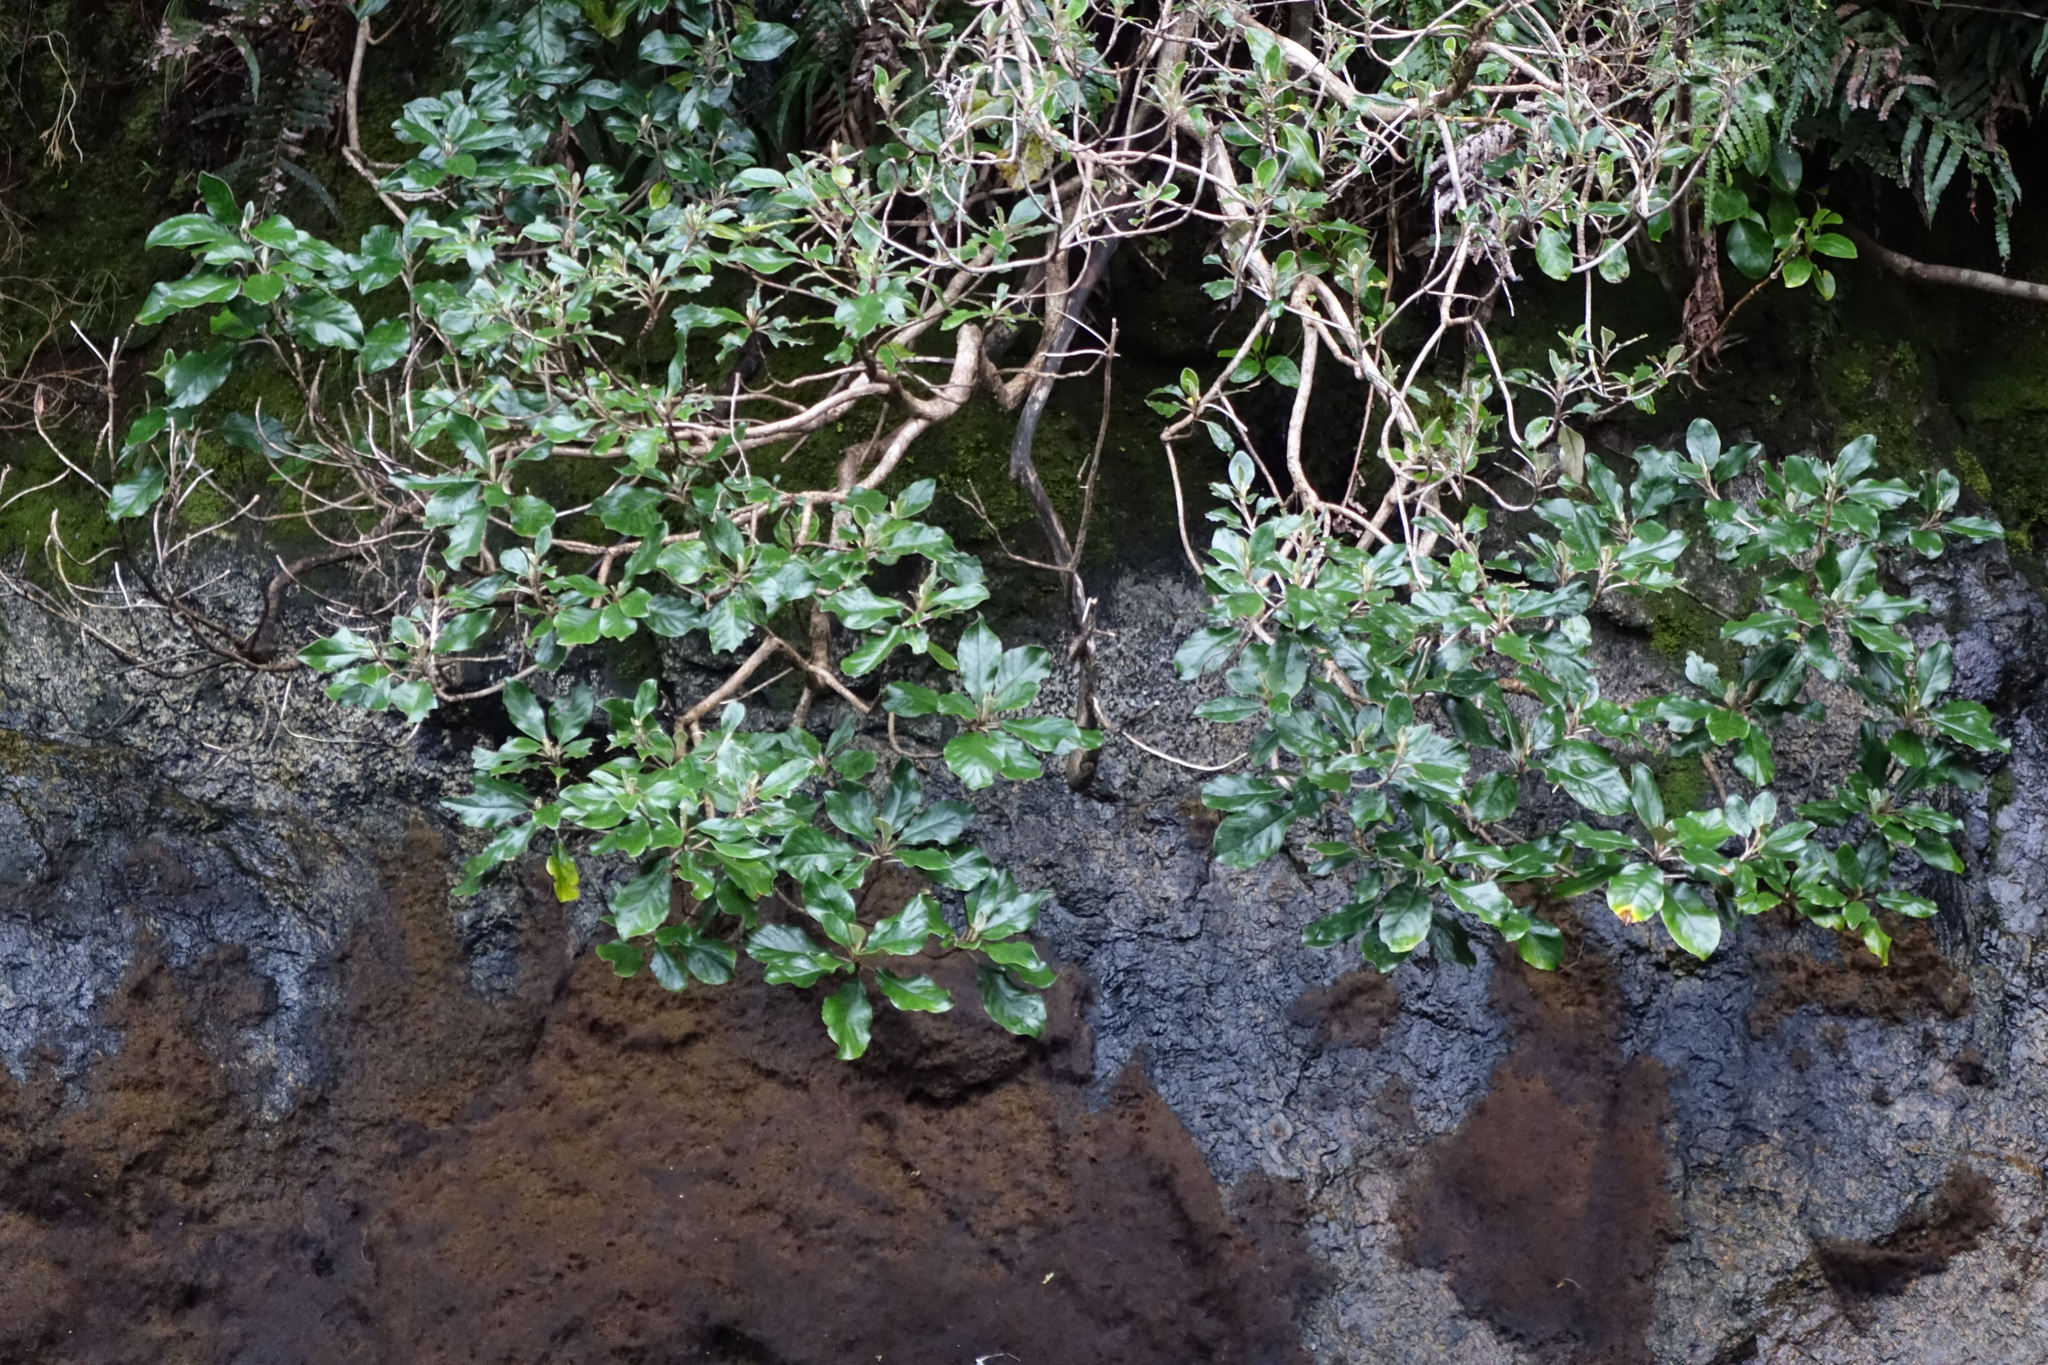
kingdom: Plantae
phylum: Tracheophyta
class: Magnoliopsida
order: Asterales
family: Asteraceae
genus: Brachyglottis
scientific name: Brachyglottis rotundifolia
